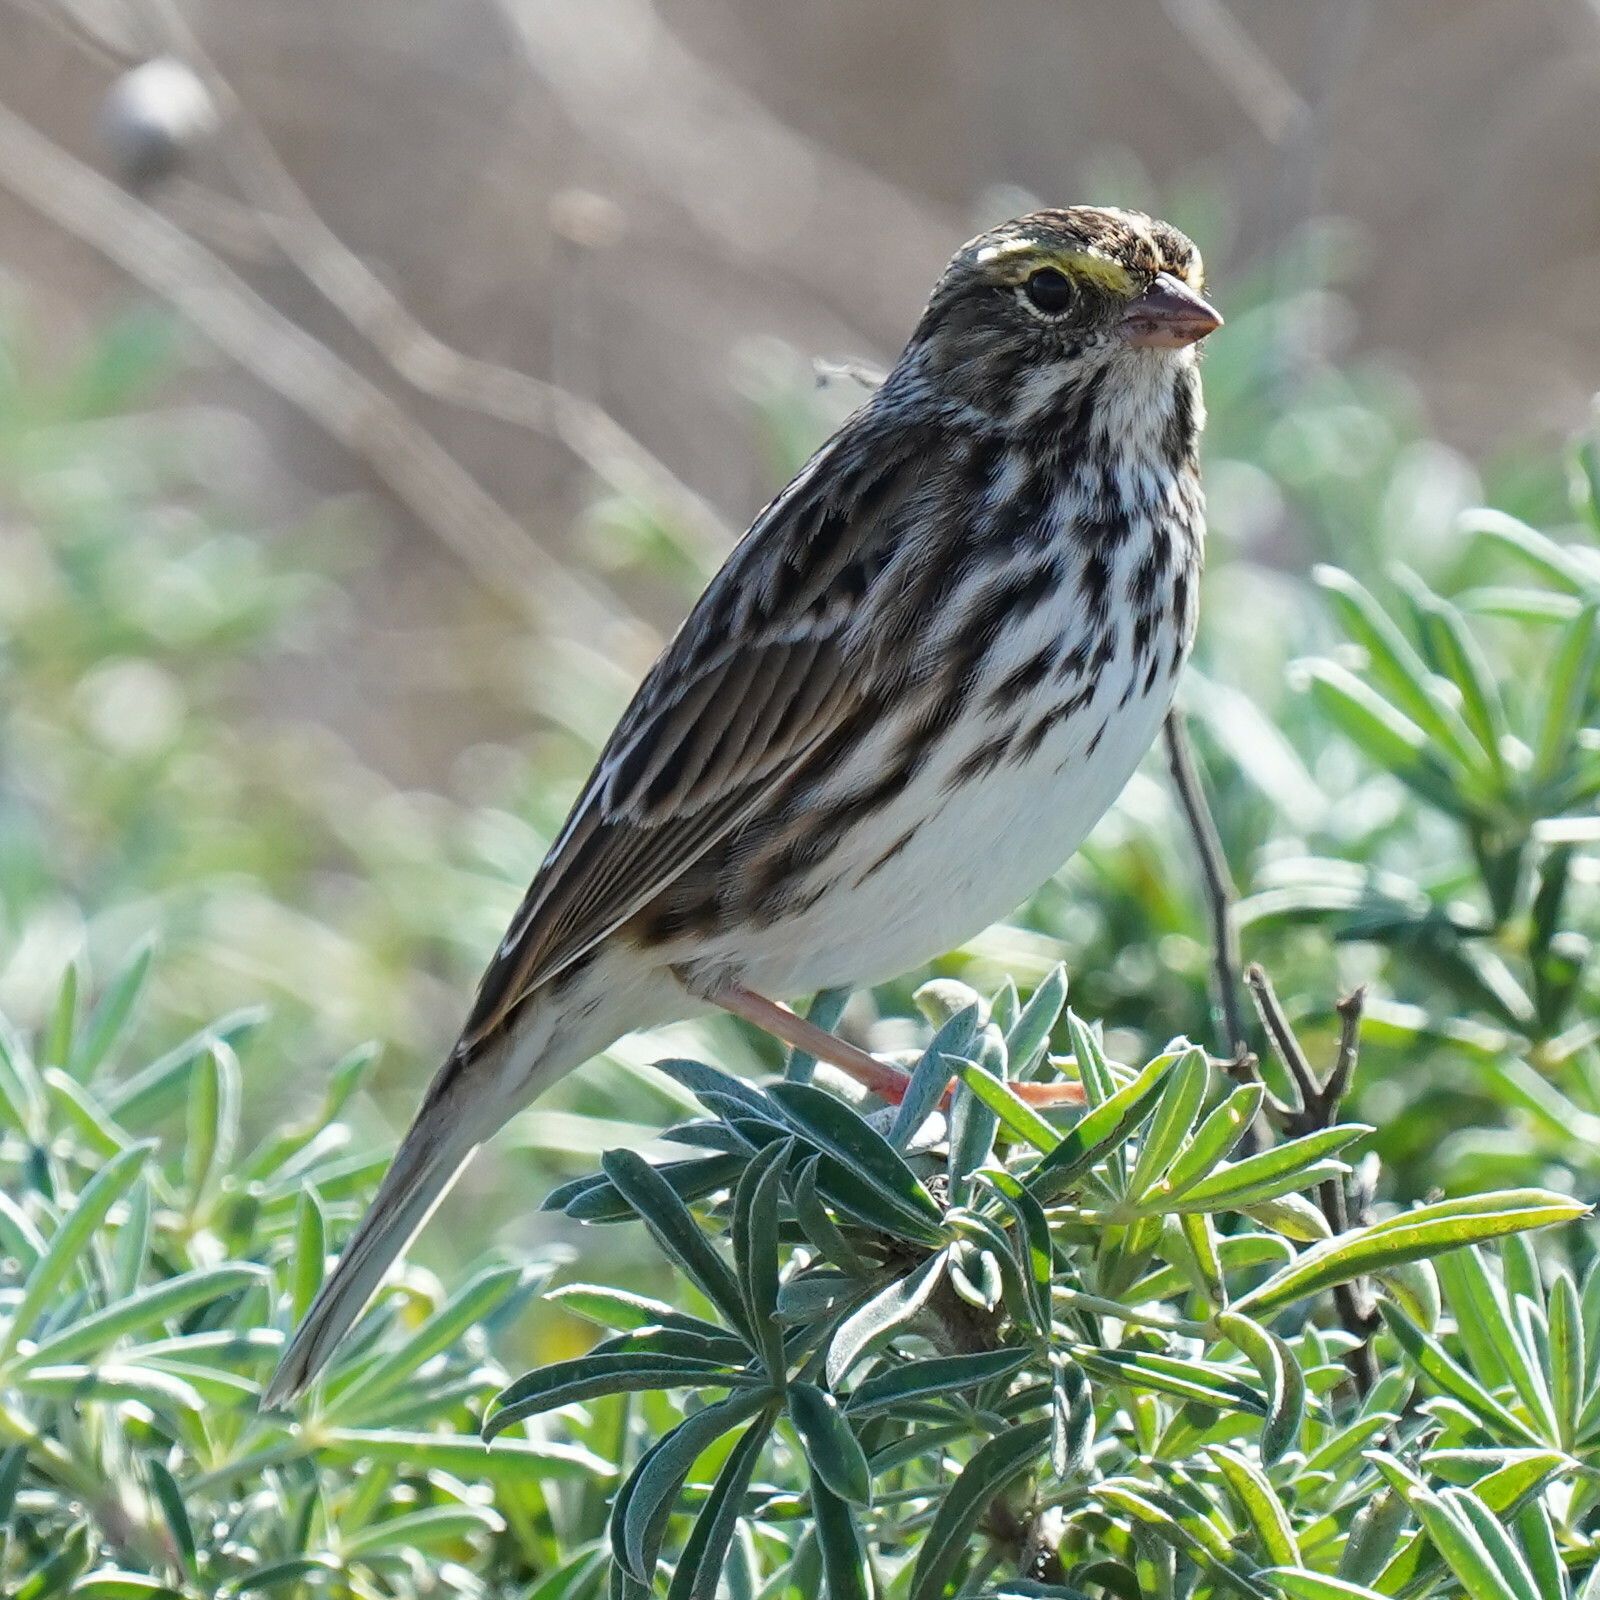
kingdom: Animalia
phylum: Chordata
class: Aves
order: Passeriformes
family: Passerellidae
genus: Passerculus
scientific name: Passerculus sandwichensis
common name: Savannah sparrow
